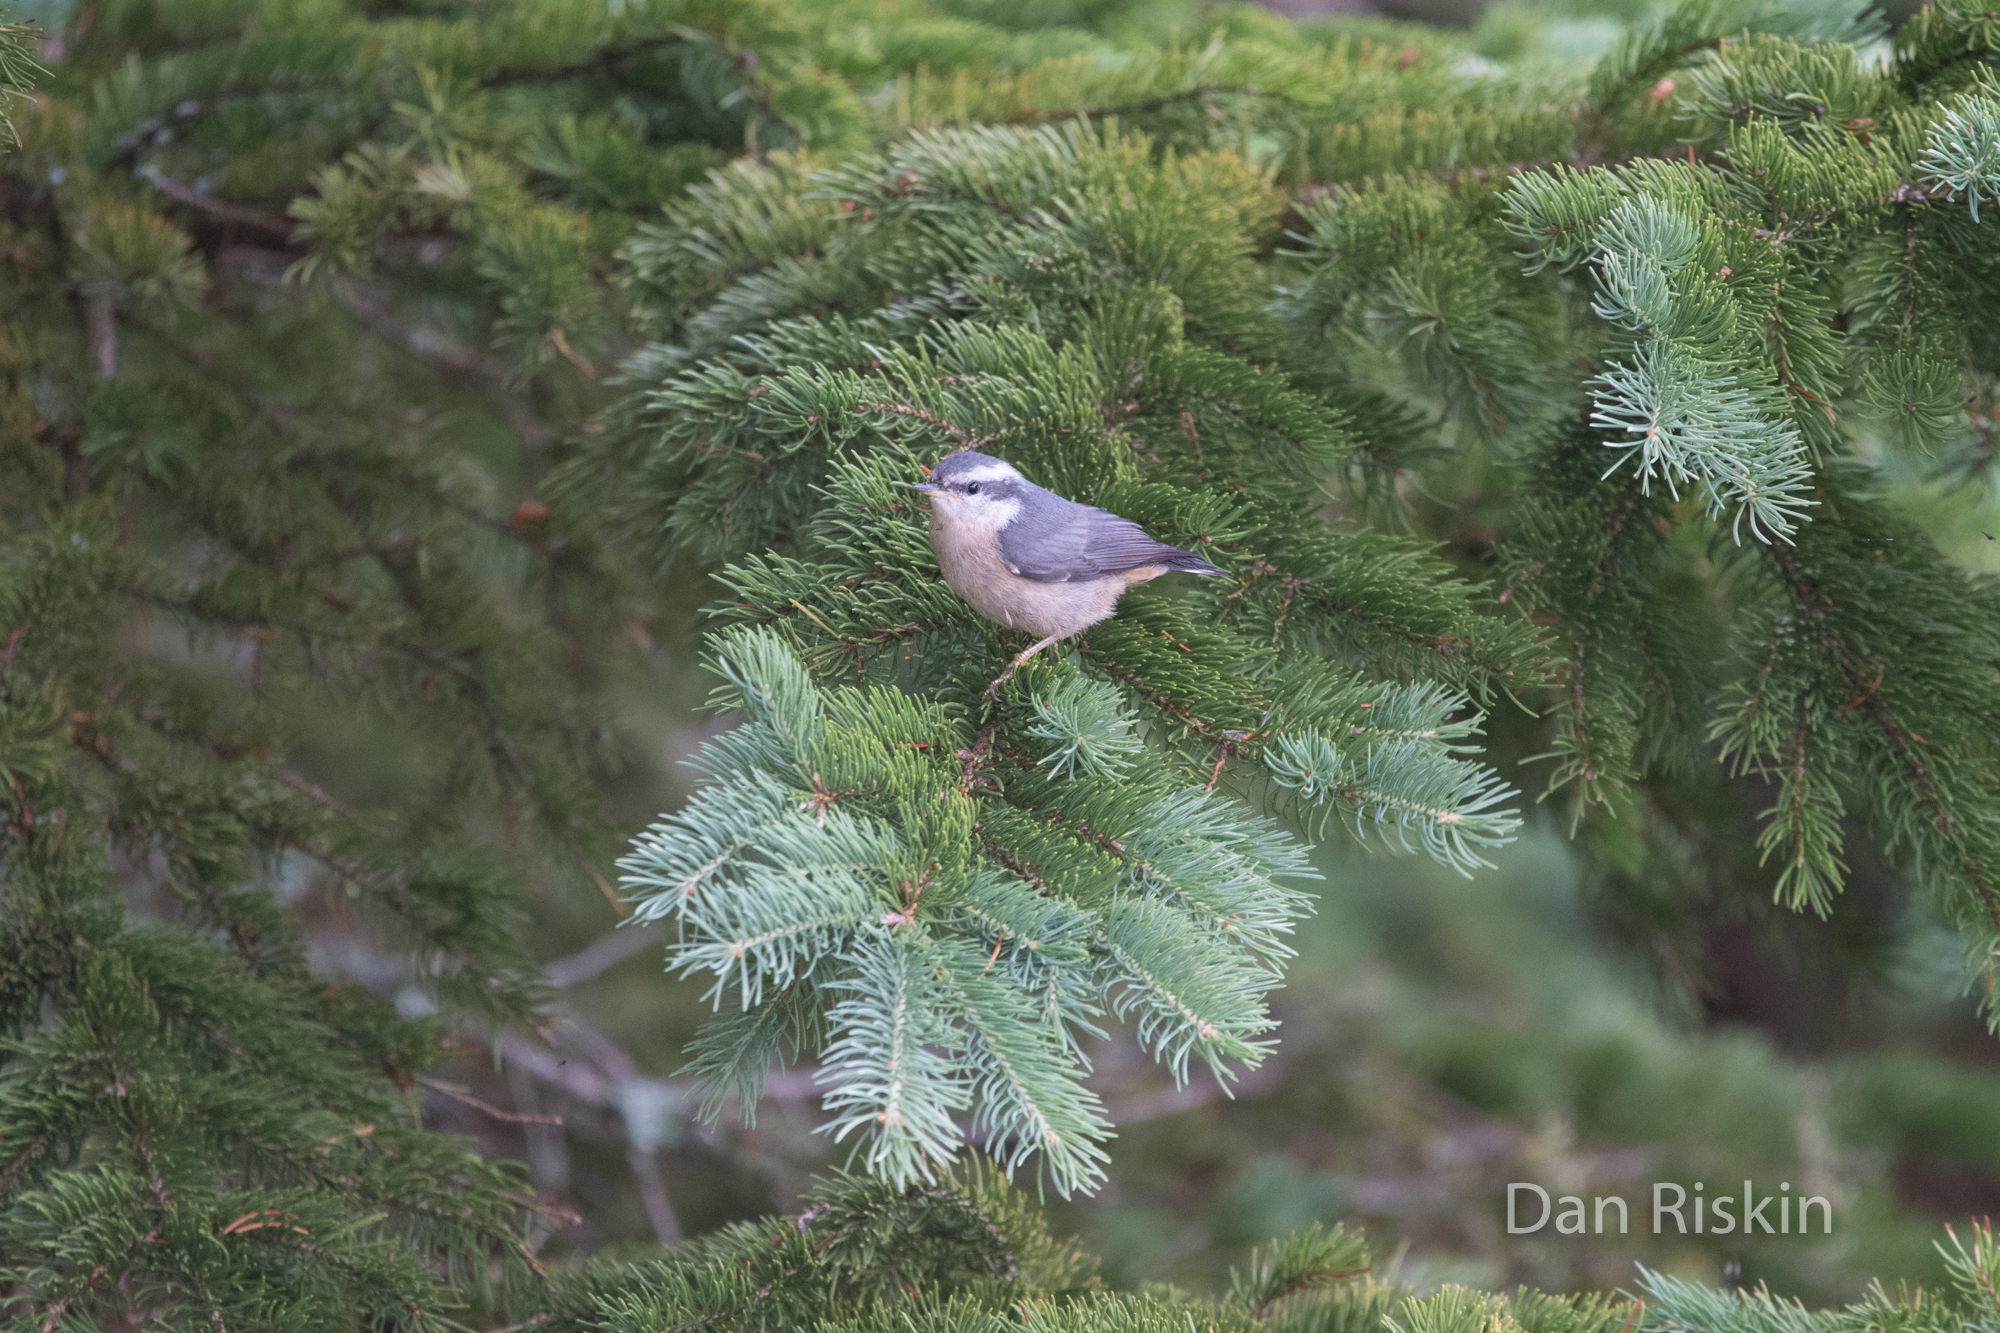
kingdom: Animalia
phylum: Chordata
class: Aves
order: Passeriformes
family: Sittidae
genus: Sitta
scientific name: Sitta canadensis
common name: Red-breasted nuthatch
